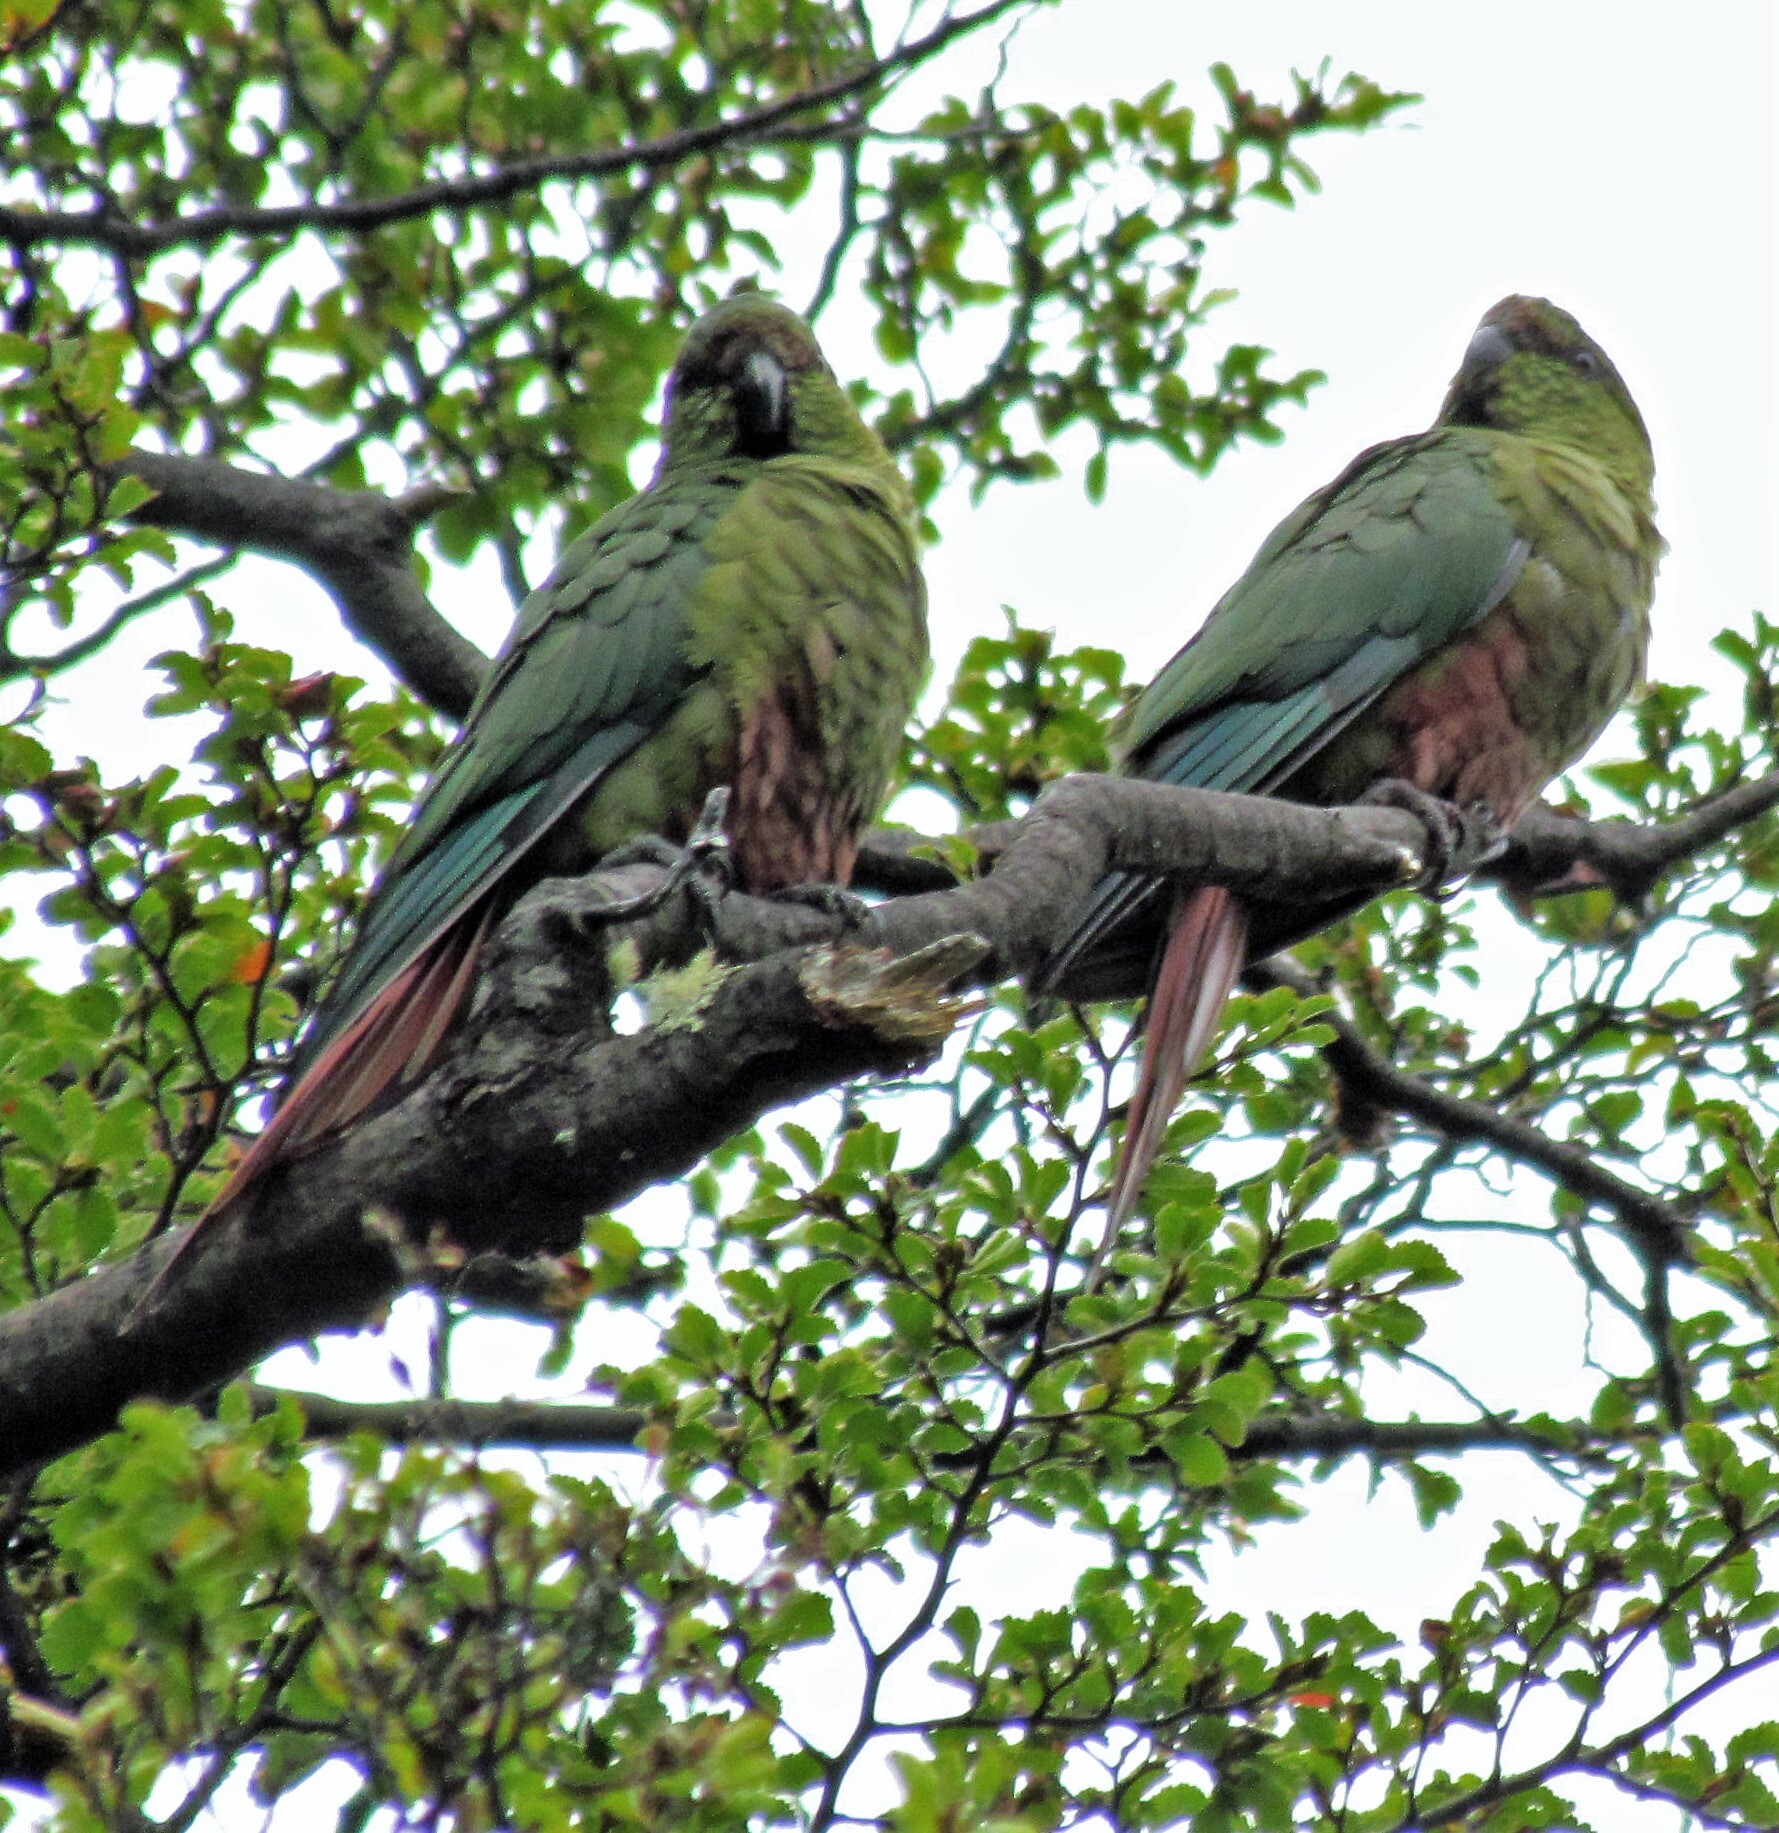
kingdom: Animalia
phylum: Chordata
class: Aves
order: Psittaciformes
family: Psittacidae
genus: Enicognathus
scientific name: Enicognathus ferrugineus
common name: Austral parakeet
